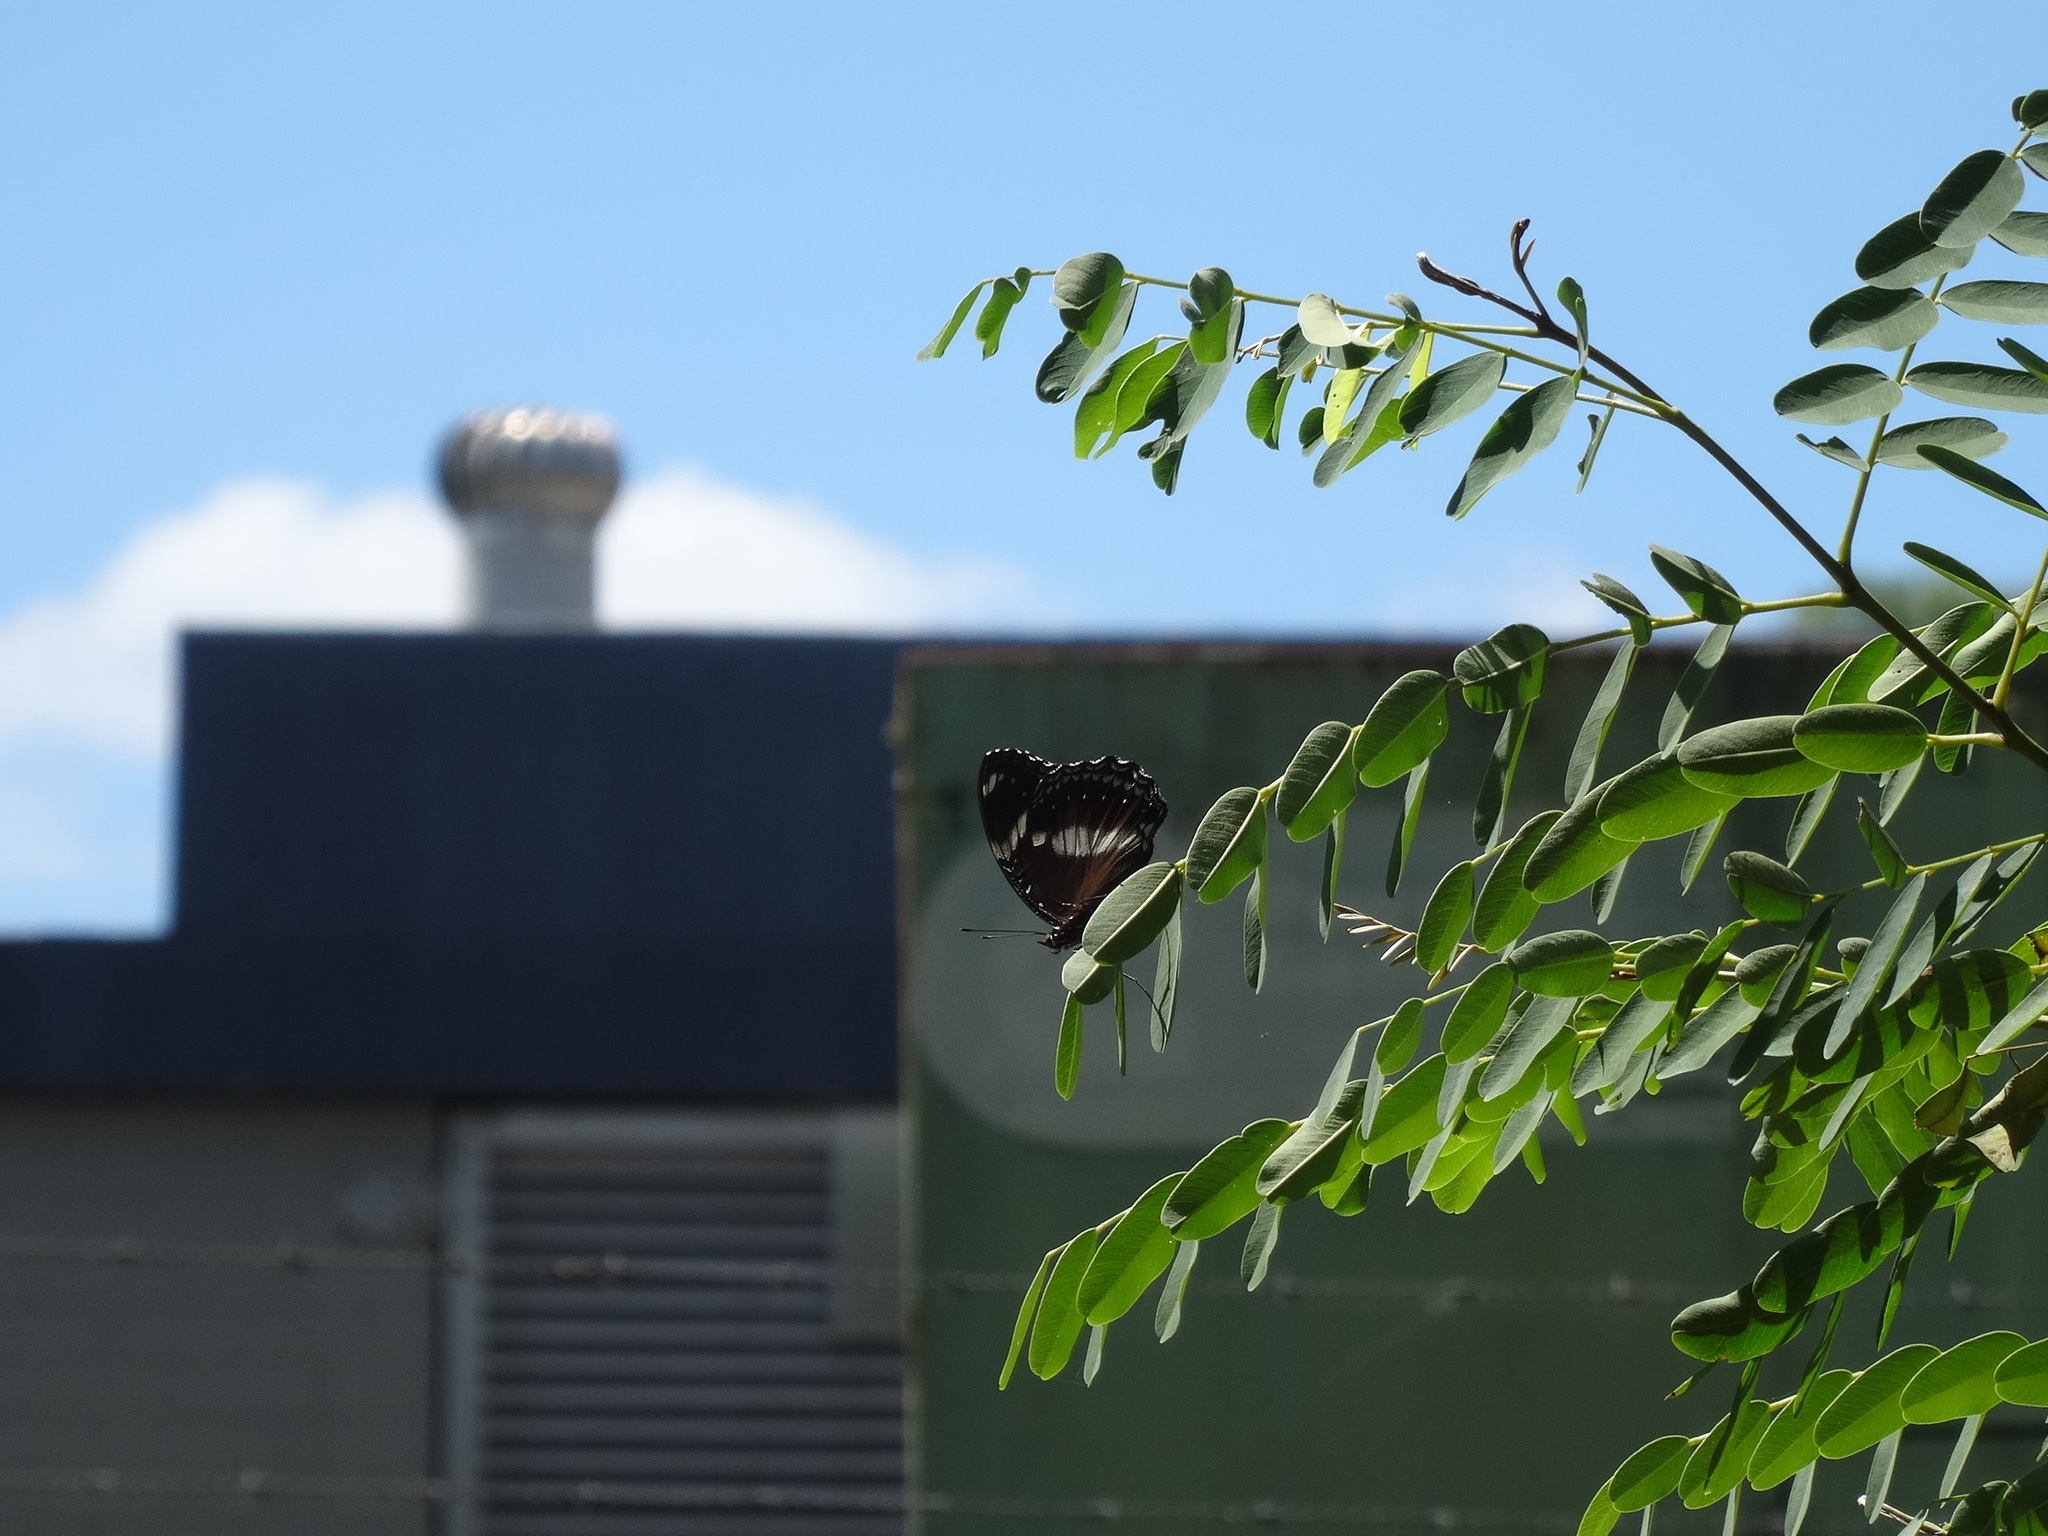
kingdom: Animalia
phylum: Arthropoda
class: Insecta
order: Lepidoptera
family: Nymphalidae
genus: Hypolimnas
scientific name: Hypolimnas bolina
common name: Great eggfly
